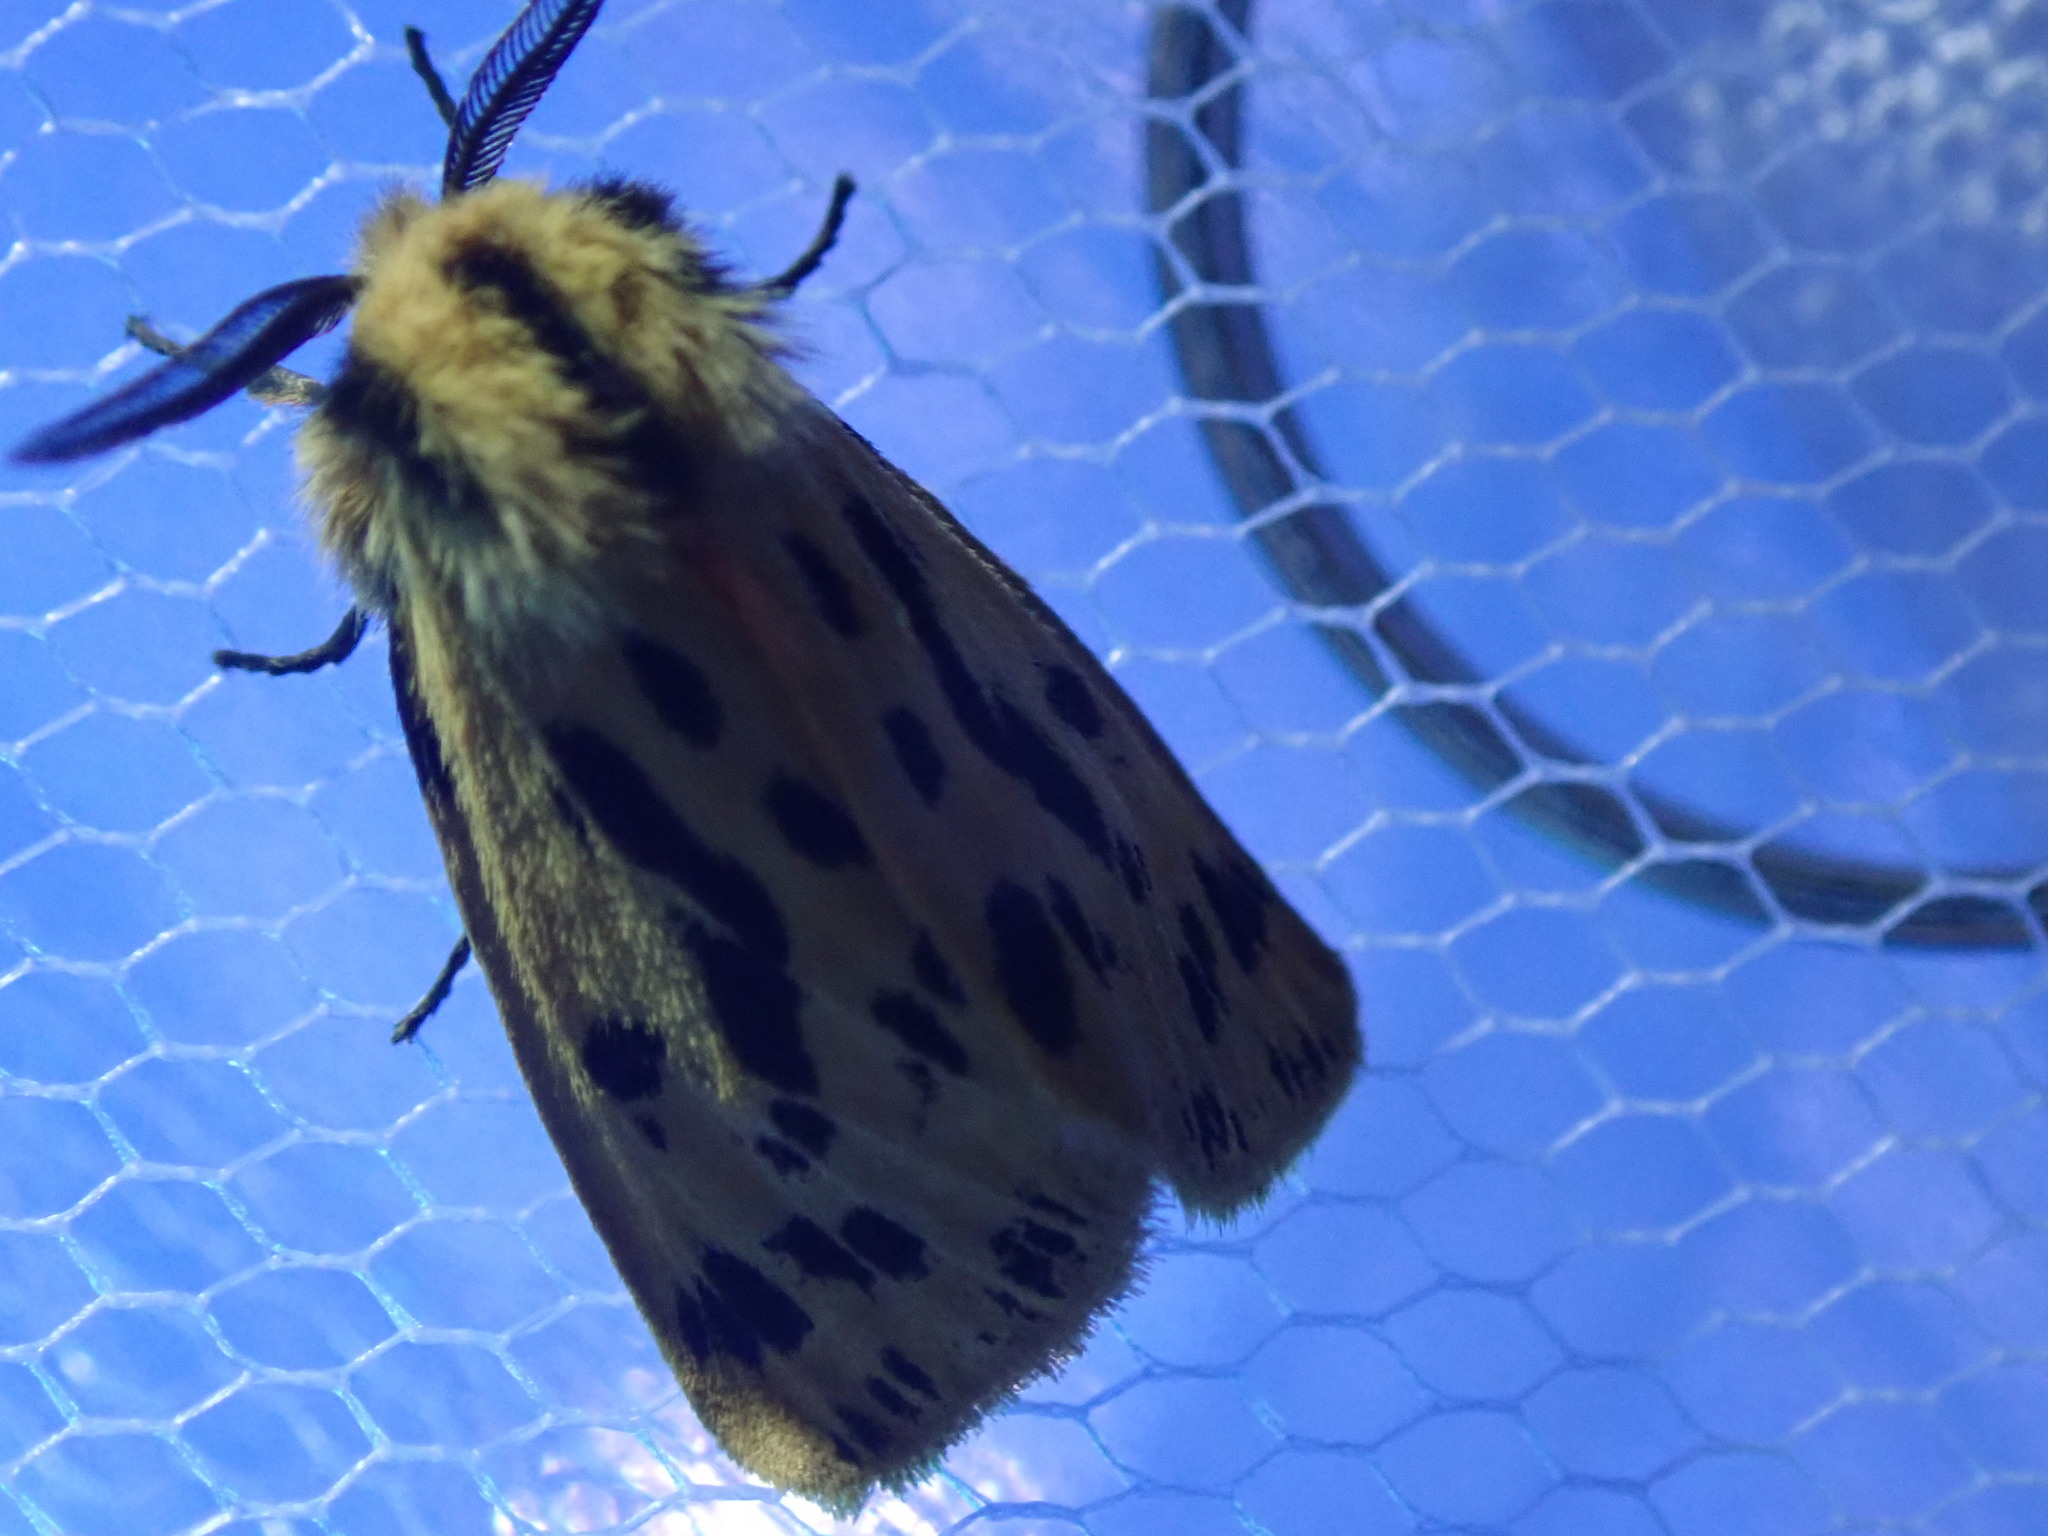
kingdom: Animalia
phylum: Arthropoda
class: Insecta
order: Lepidoptera
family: Erebidae
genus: Ardices
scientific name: Ardices curvata
